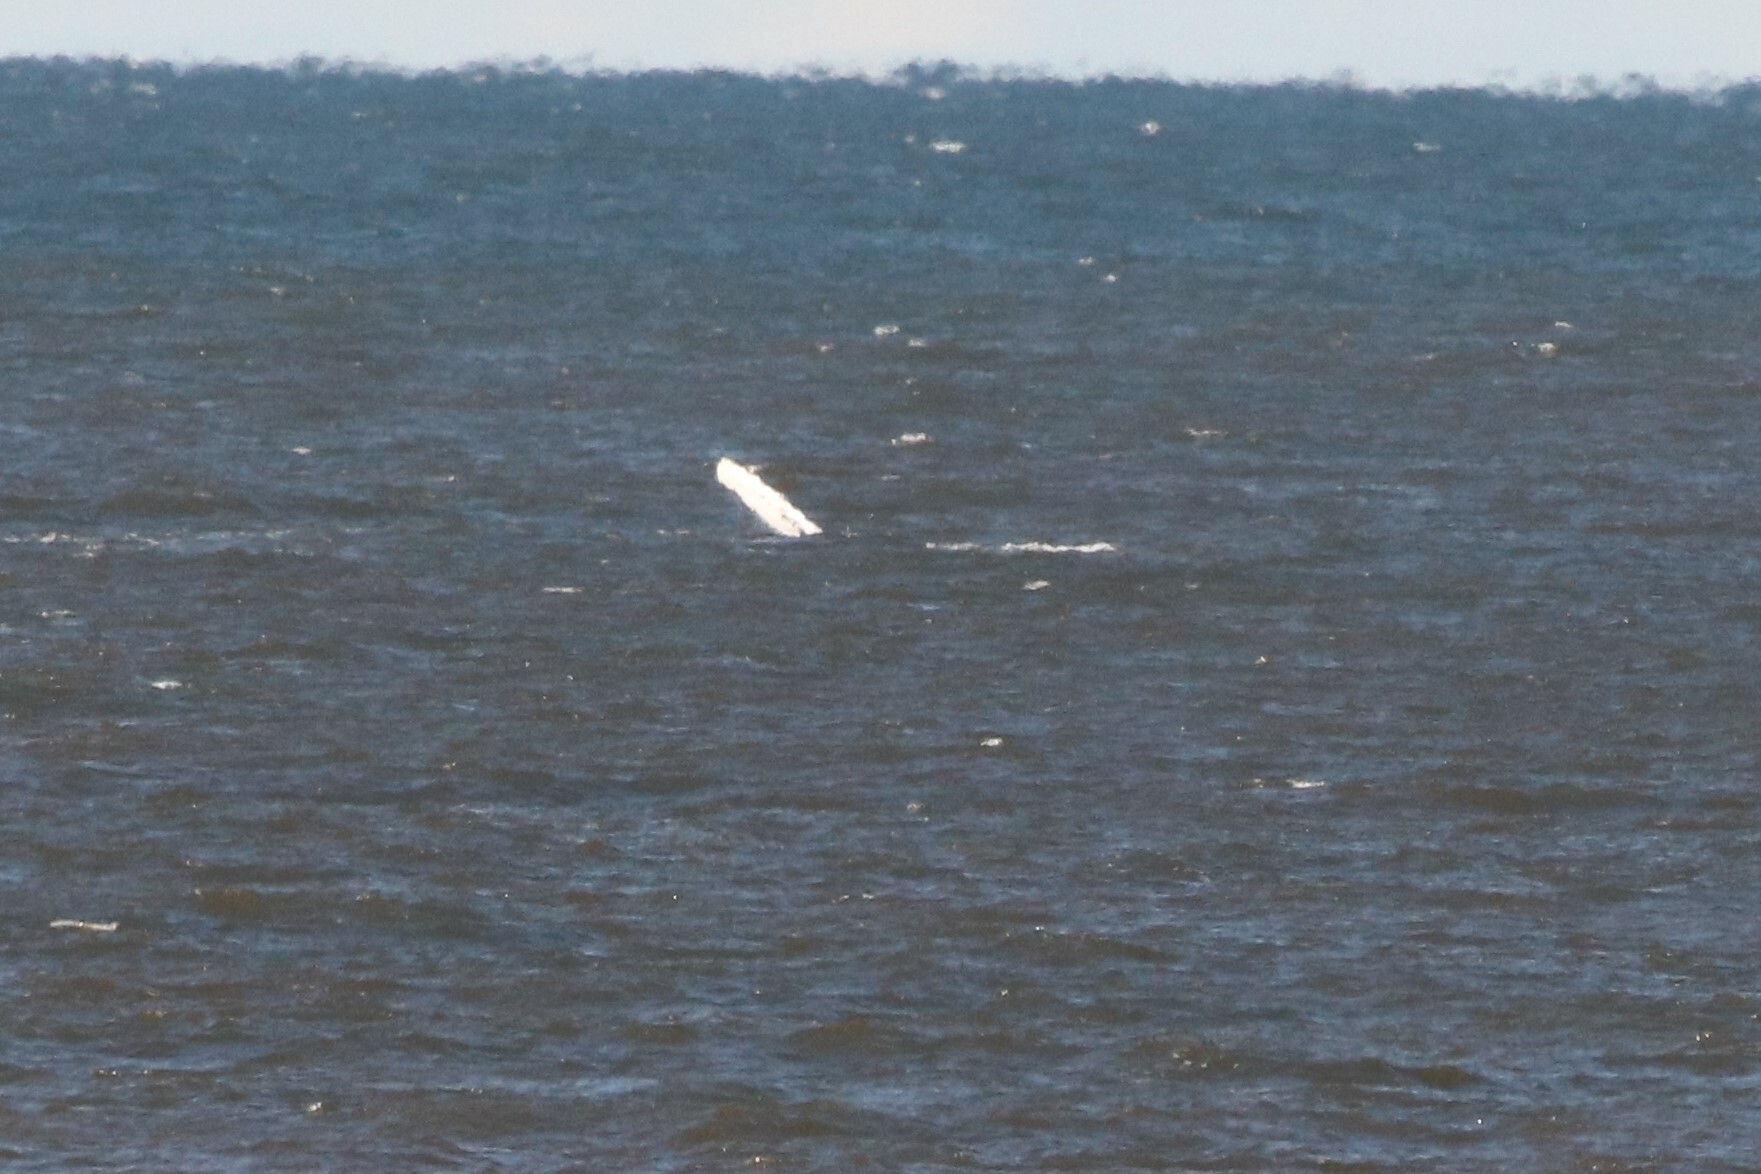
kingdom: Animalia
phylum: Chordata
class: Mammalia
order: Cetacea
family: Balaenopteridae
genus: Megaptera
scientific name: Megaptera novaeangliae
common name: Humpback whale
